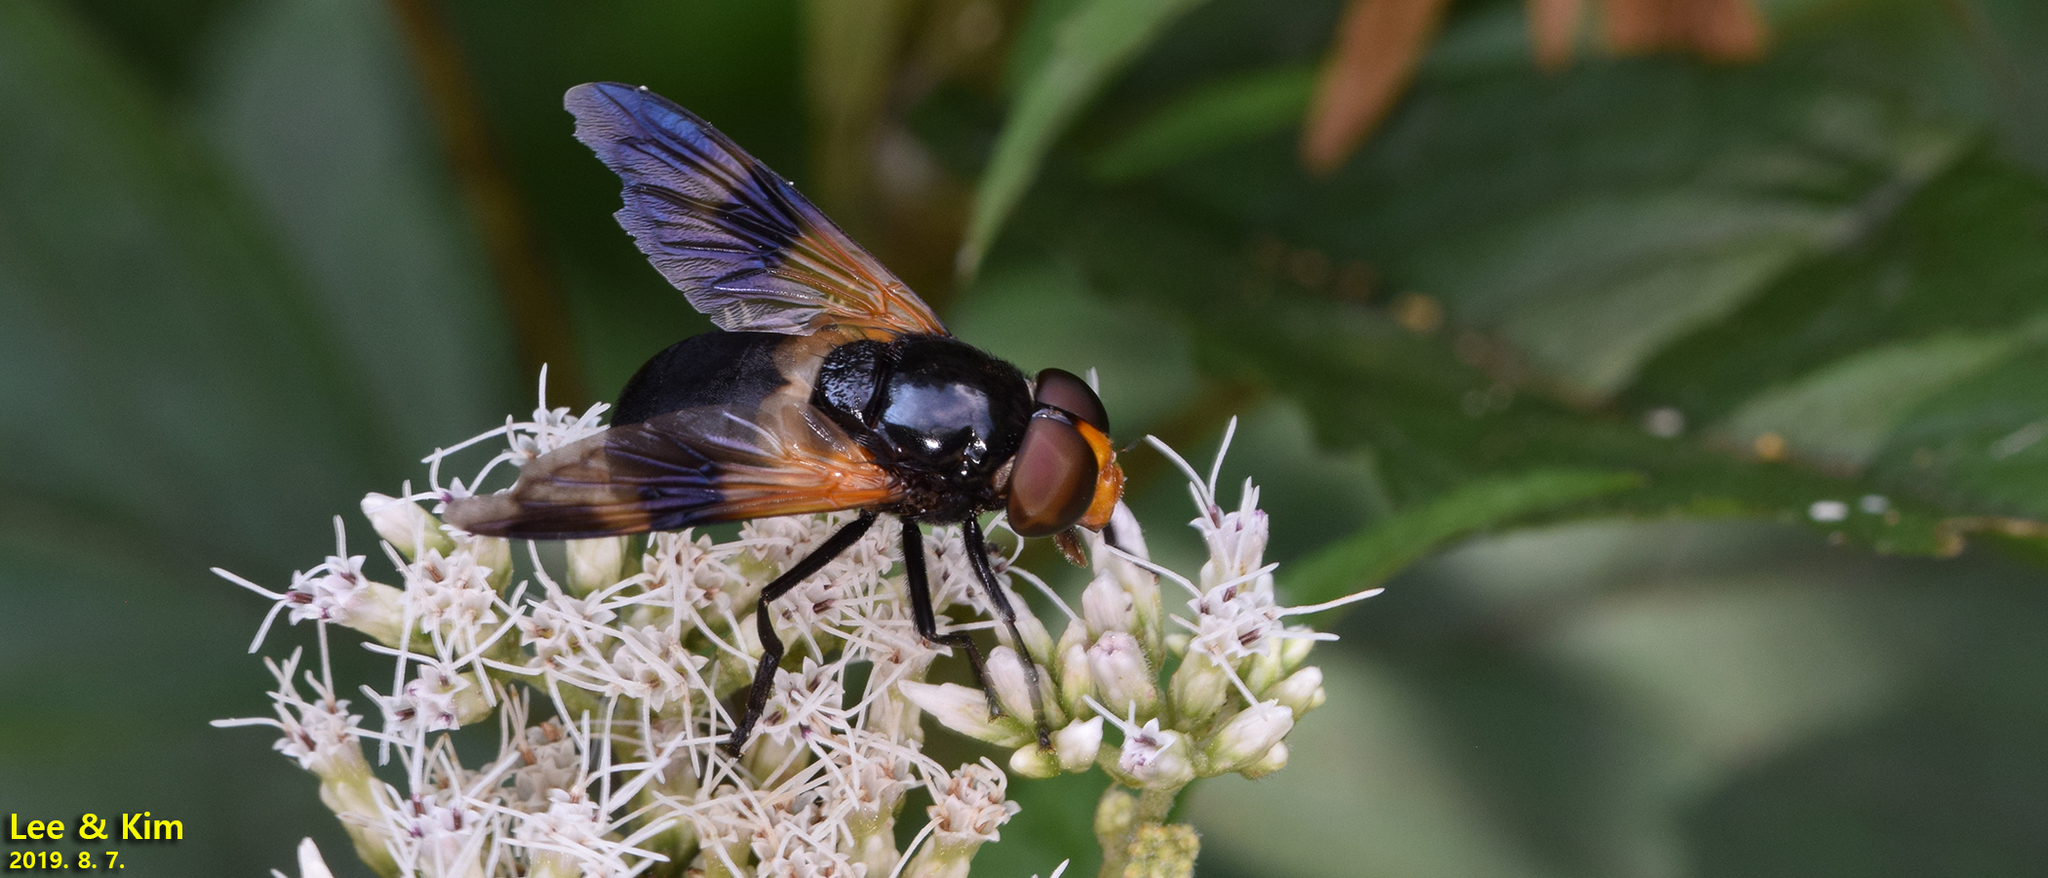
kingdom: Animalia
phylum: Arthropoda
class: Insecta
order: Diptera
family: Syrphidae
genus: Volucella
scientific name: Volucella nigricans
